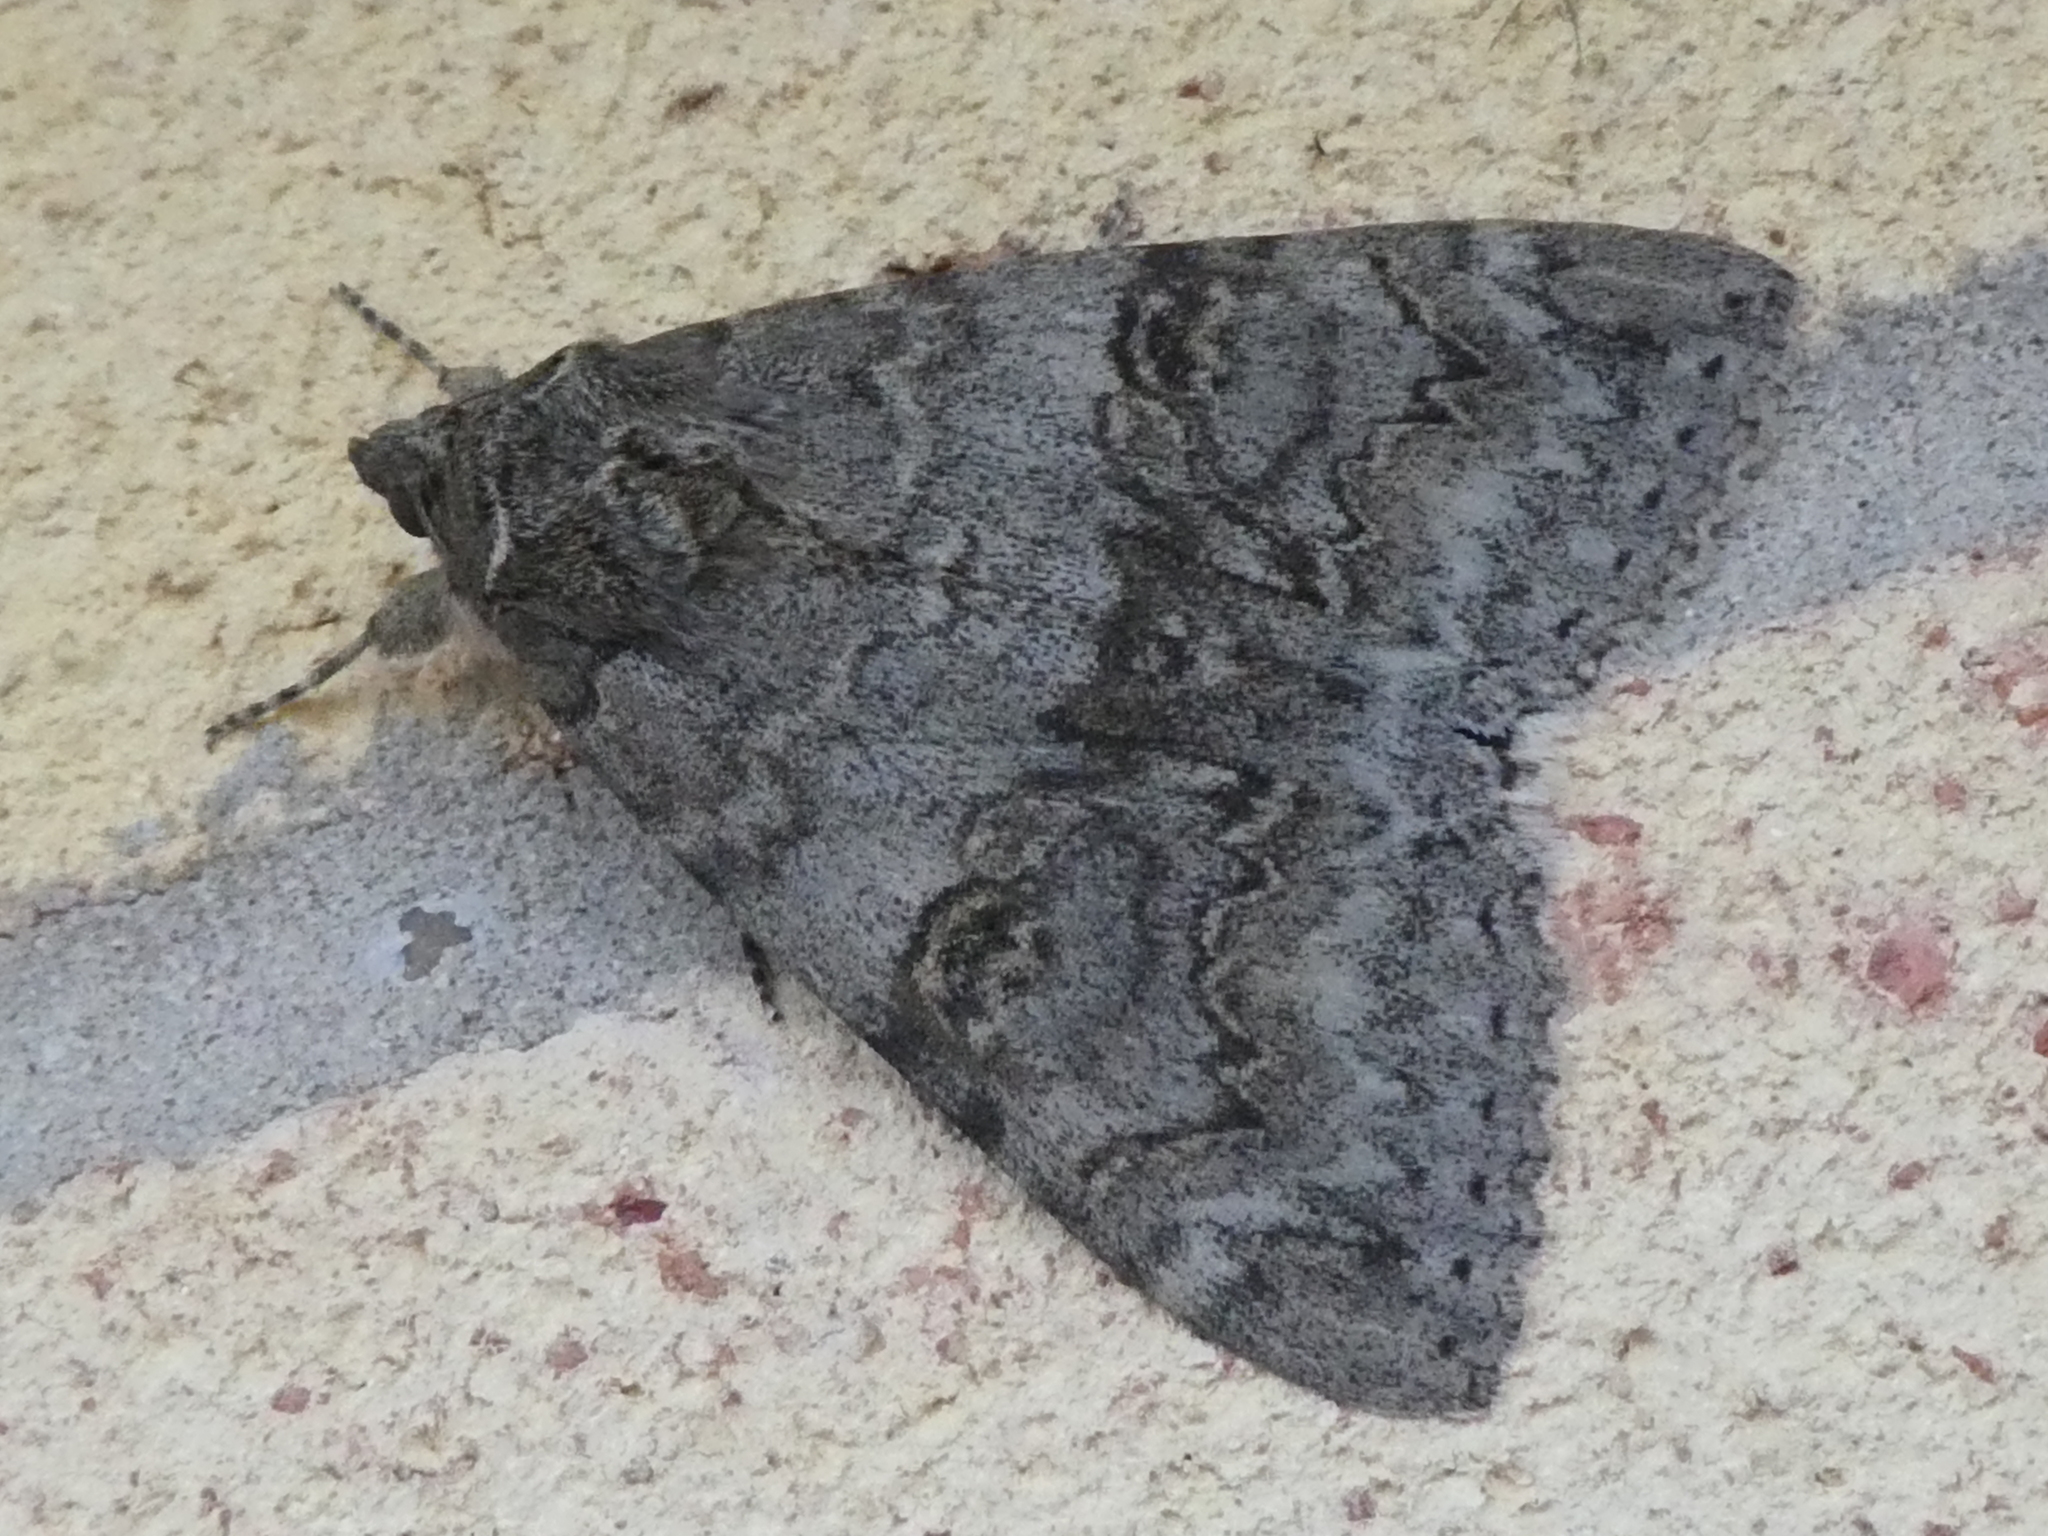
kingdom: Animalia
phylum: Arthropoda
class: Insecta
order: Lepidoptera
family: Erebidae
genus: Catocala
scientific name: Catocala nupta
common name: Red underwing
